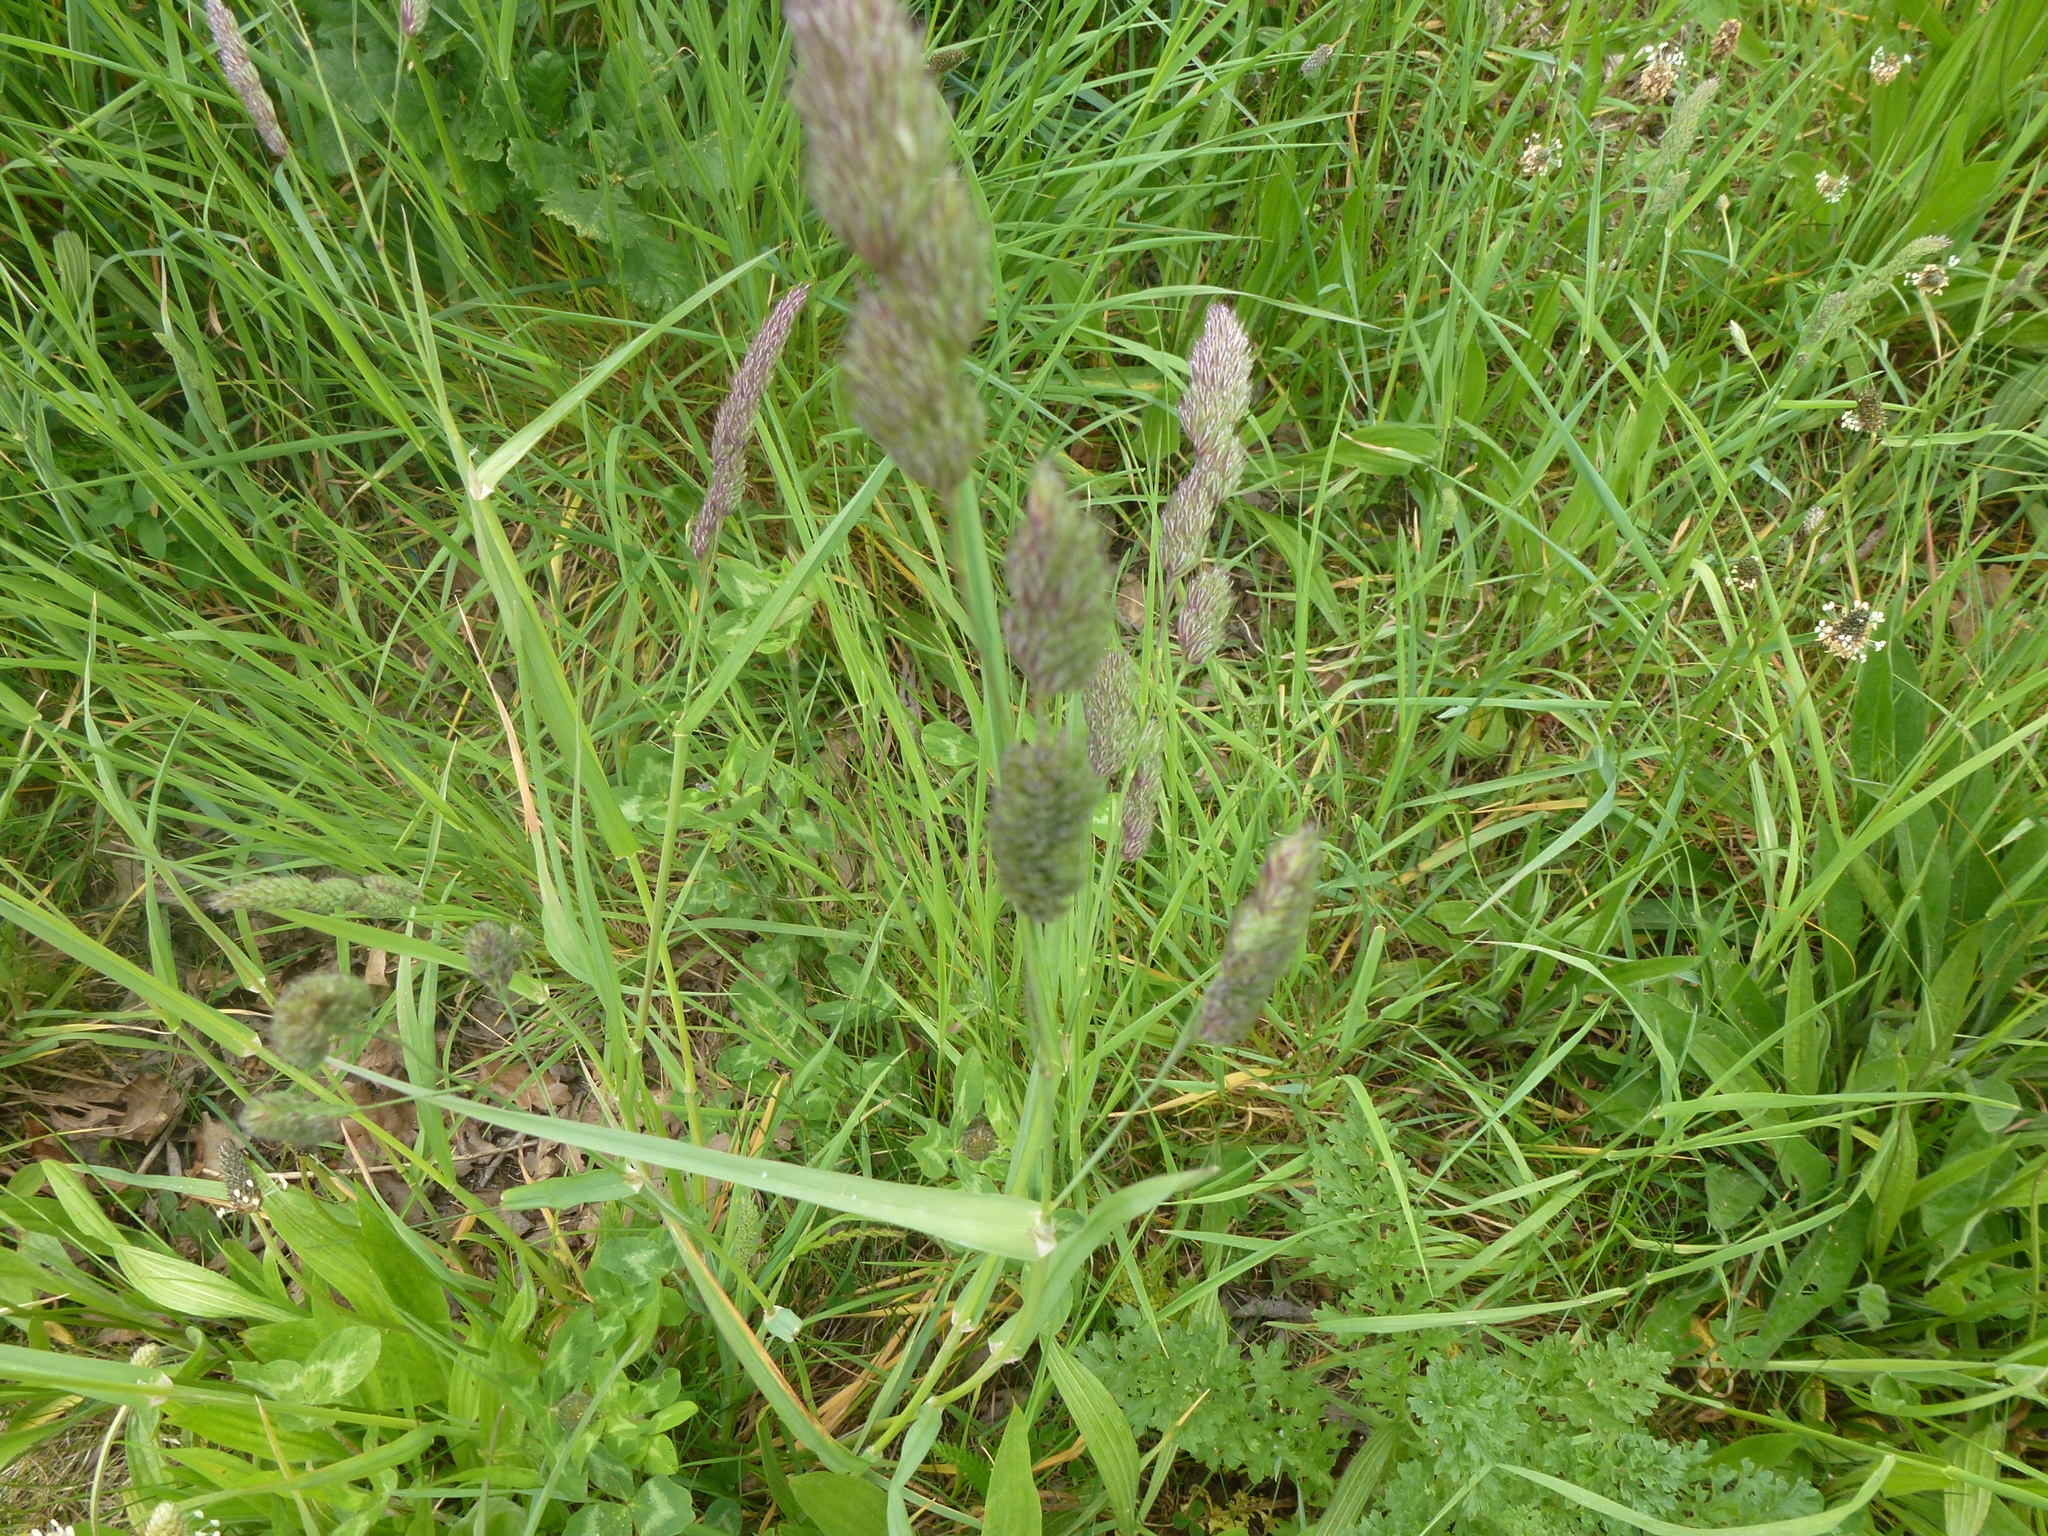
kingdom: Plantae
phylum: Tracheophyta
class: Liliopsida
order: Poales
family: Poaceae
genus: Dactylis
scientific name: Dactylis glomerata
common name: Orchardgrass
